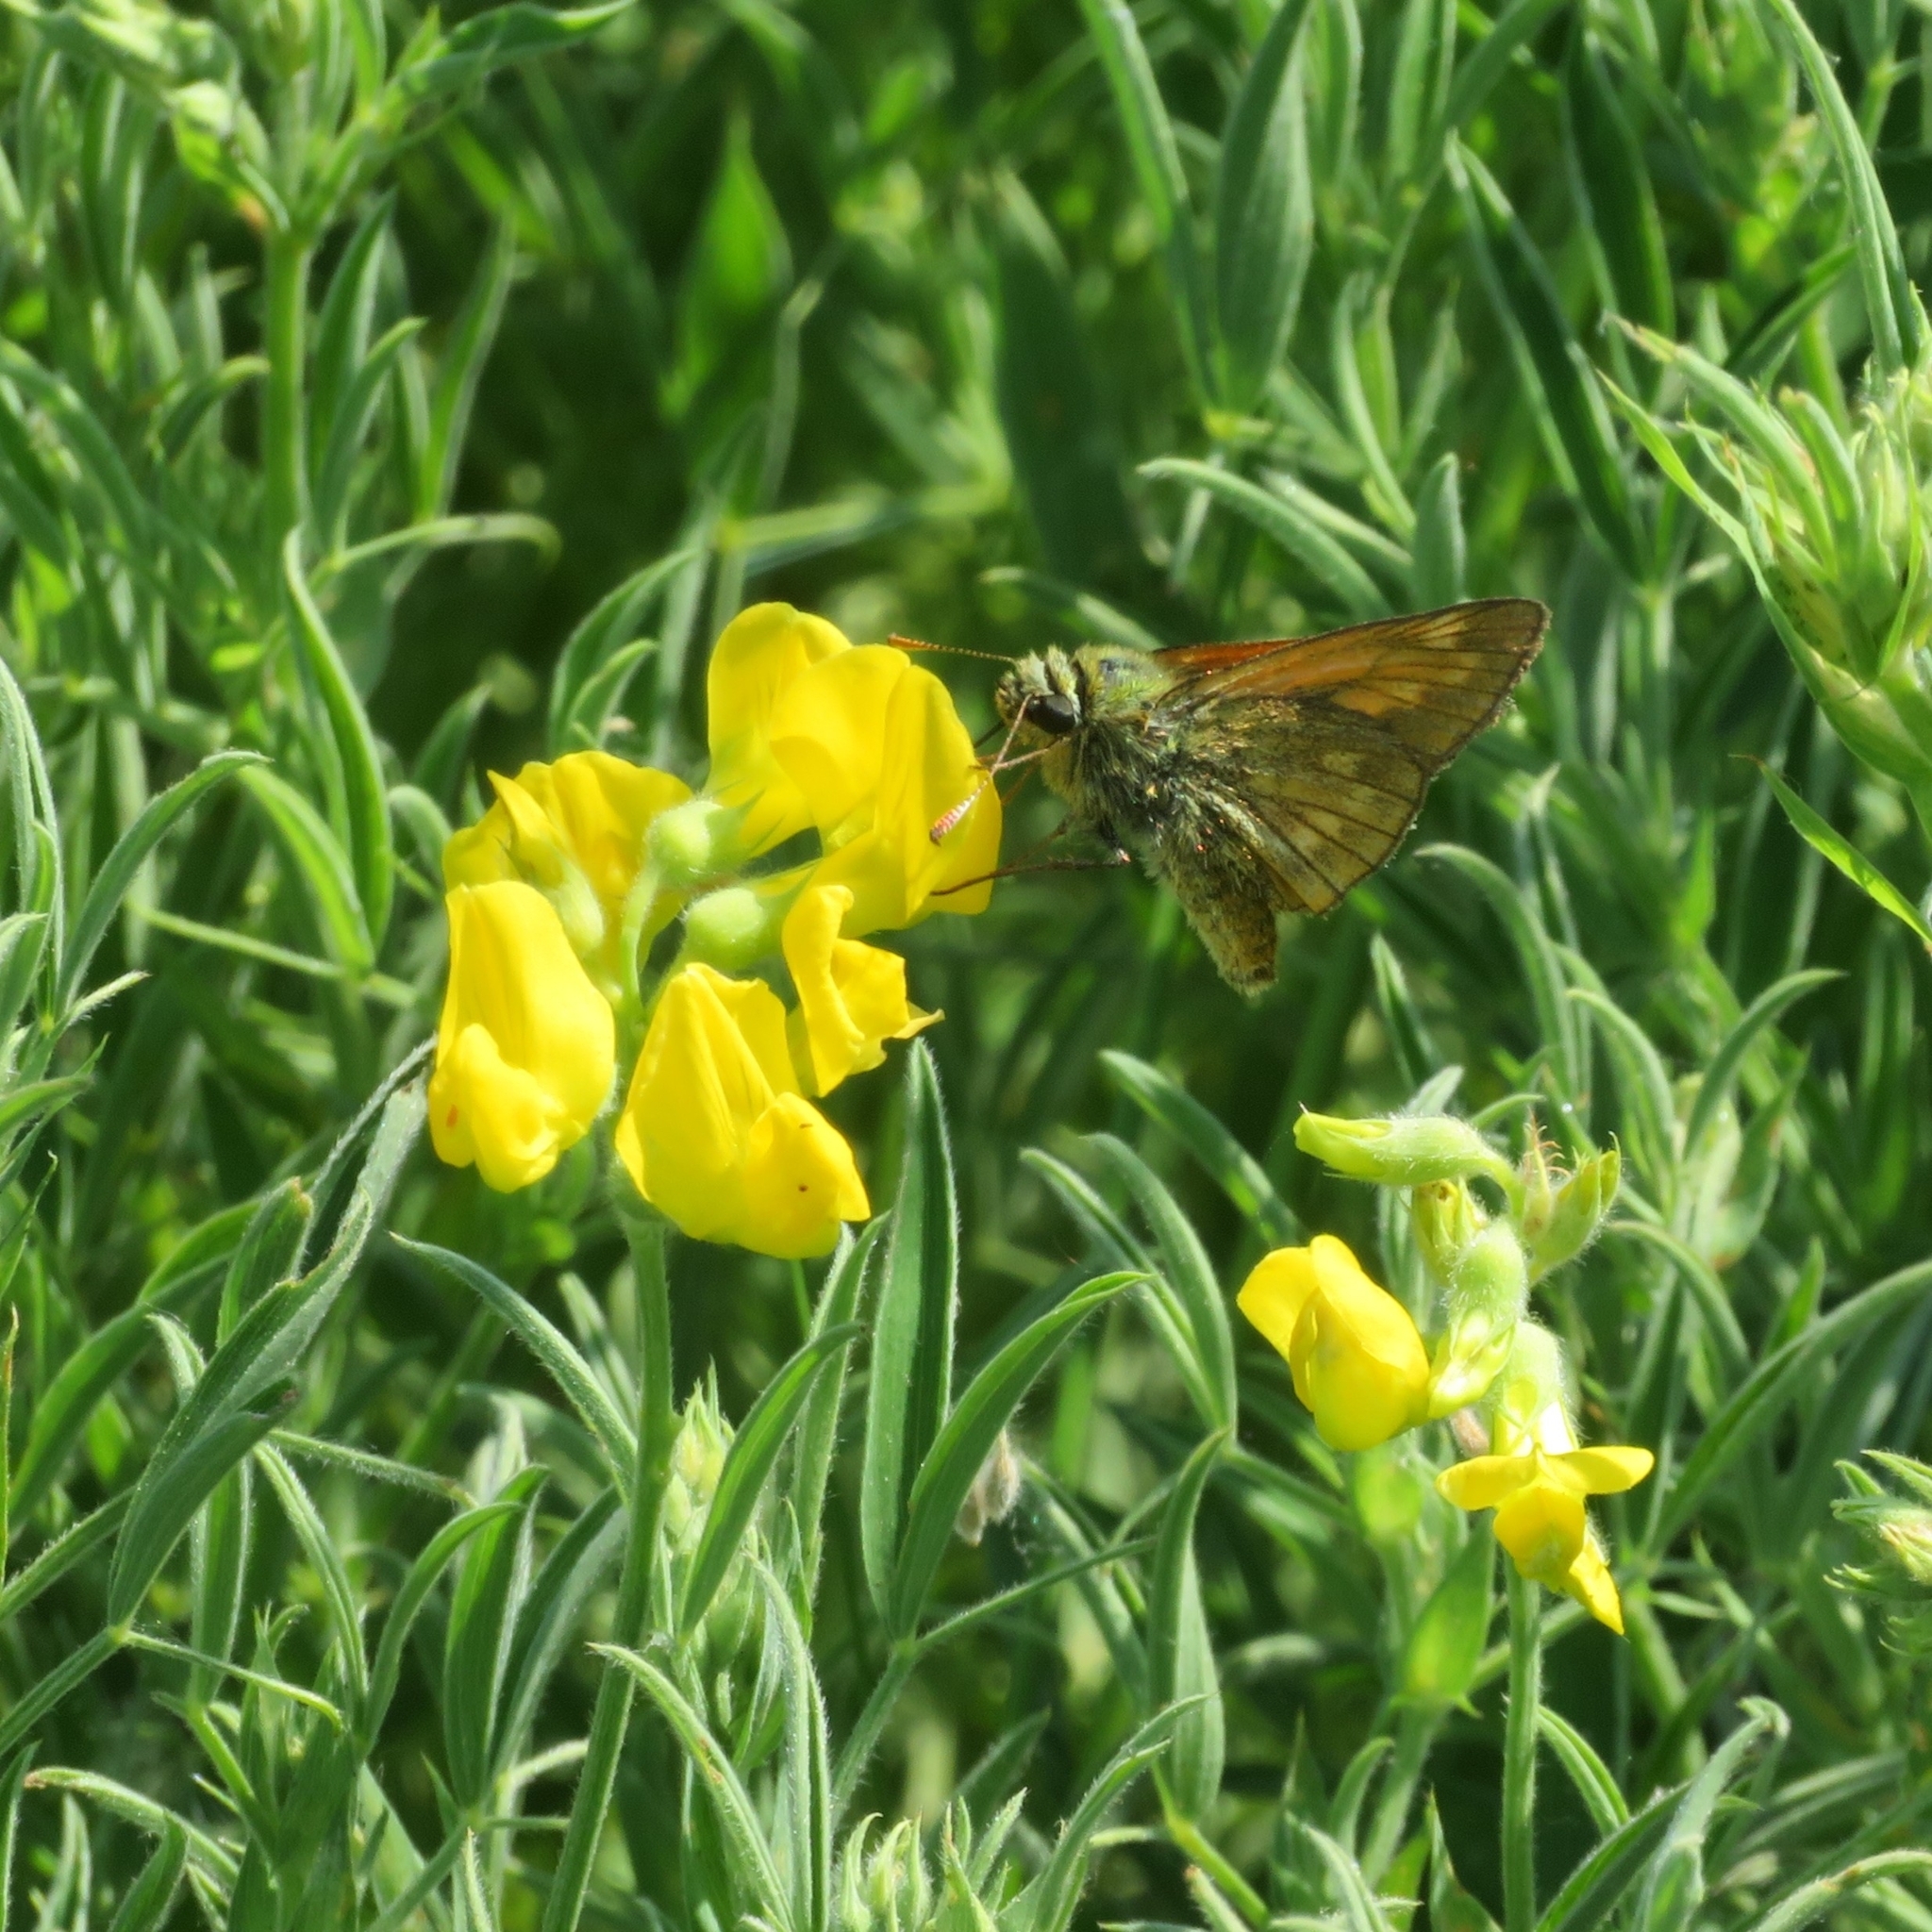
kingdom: Animalia
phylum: Arthropoda
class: Insecta
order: Lepidoptera
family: Hesperiidae
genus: Ochlodes
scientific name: Ochlodes venata
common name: Large skipper
